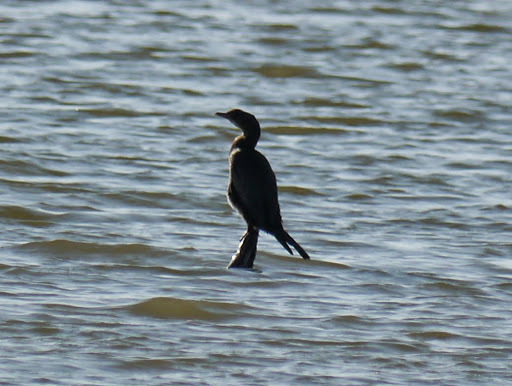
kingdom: Animalia
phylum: Chordata
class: Aves
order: Suliformes
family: Phalacrocoracidae
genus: Microcarbo
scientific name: Microcarbo pygmaeus
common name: Pygmy cormorant
